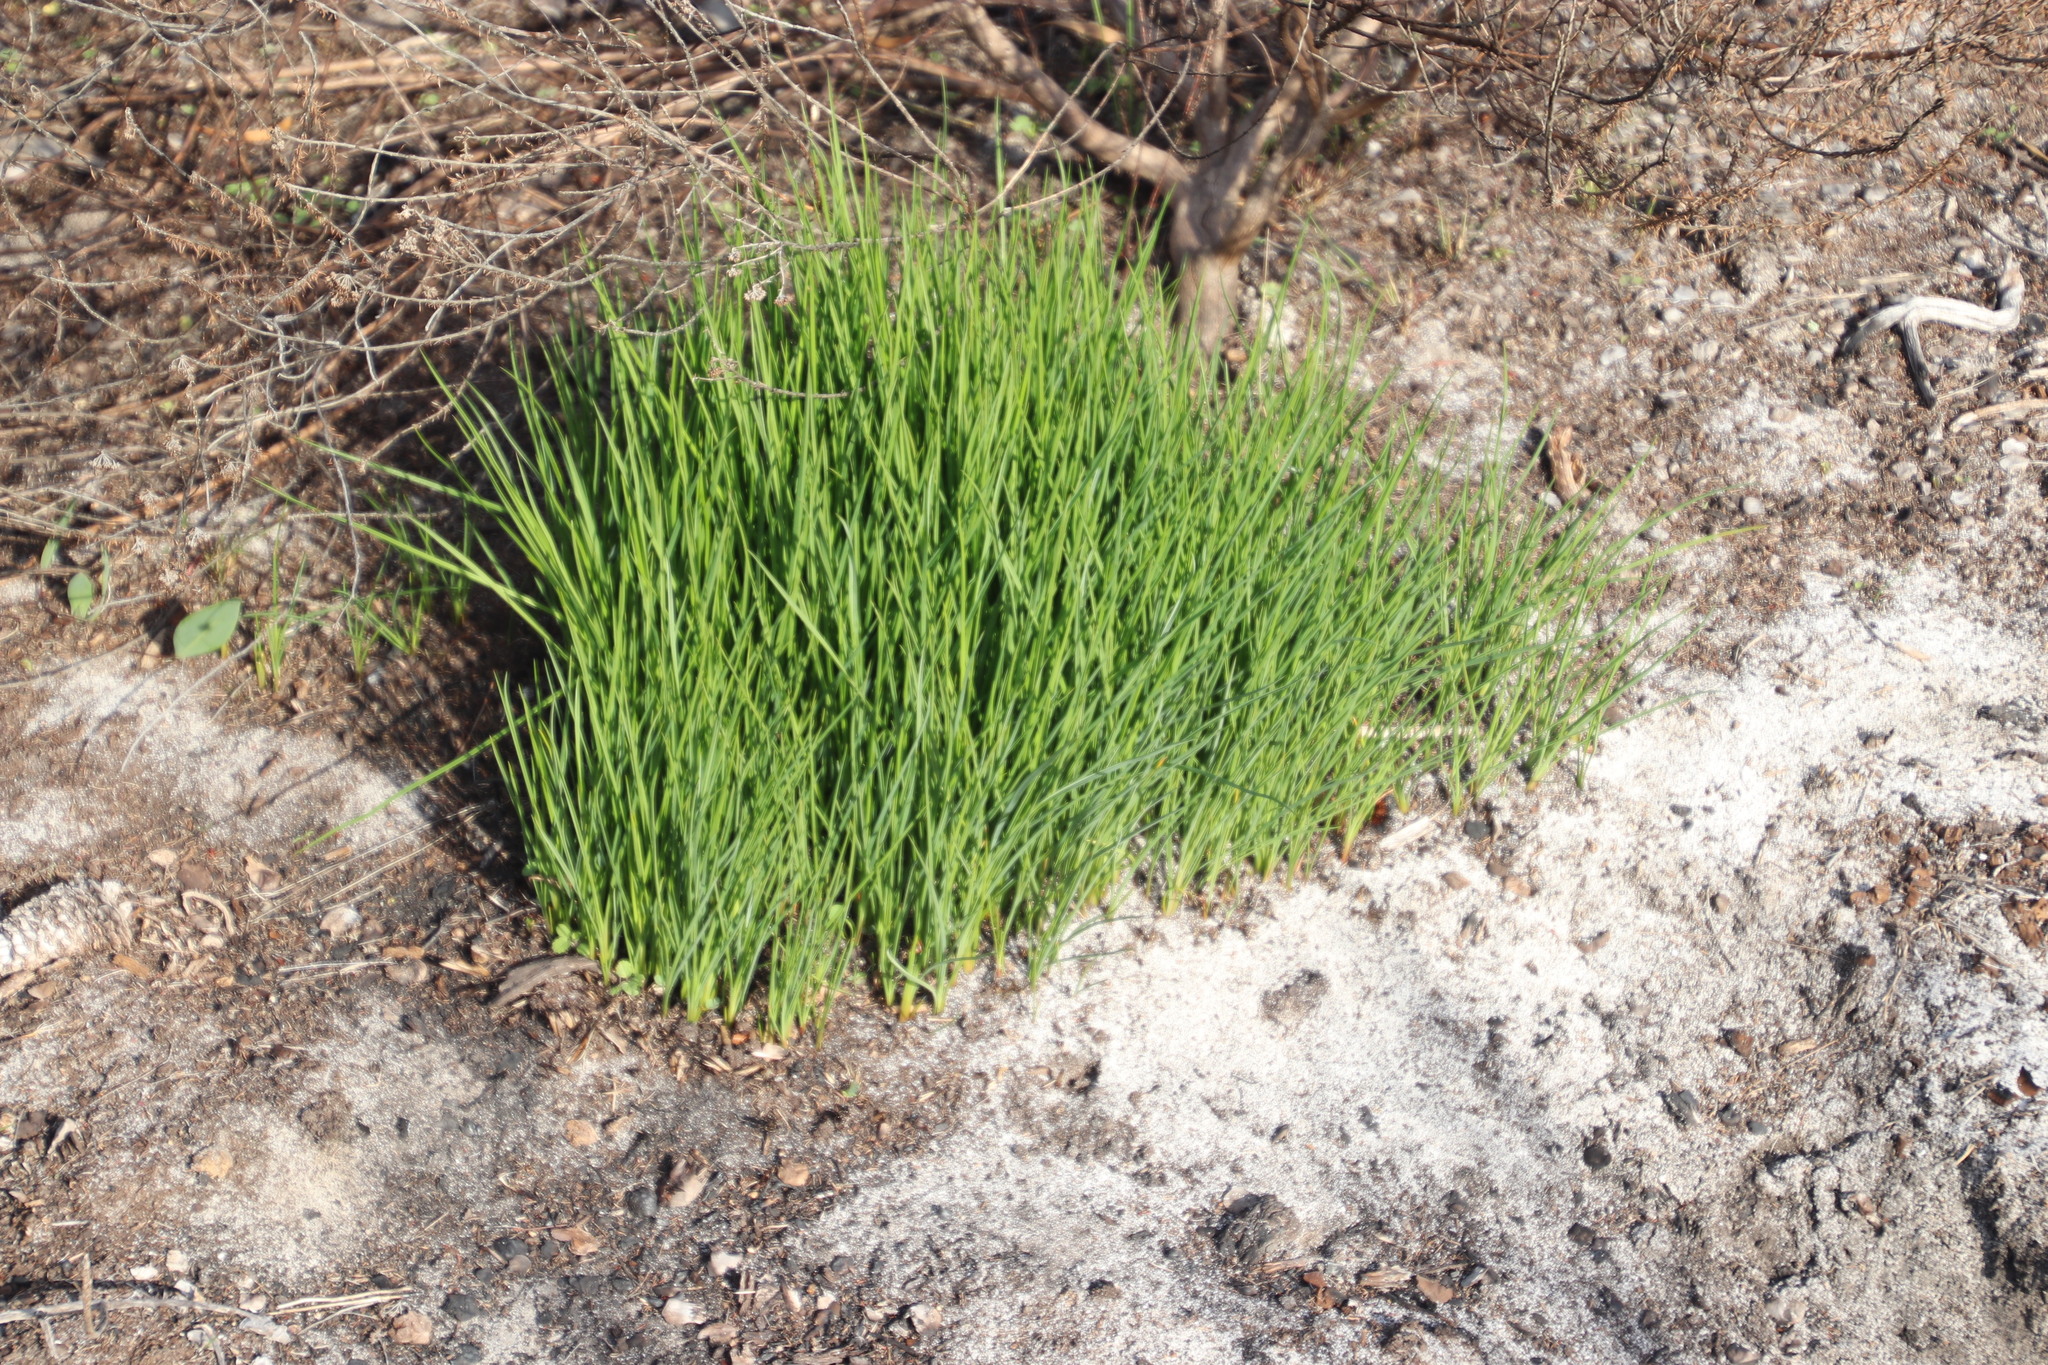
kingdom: Plantae
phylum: Tracheophyta
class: Liliopsida
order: Asparagales
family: Asphodelaceae
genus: Caesia
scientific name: Caesia contorta
